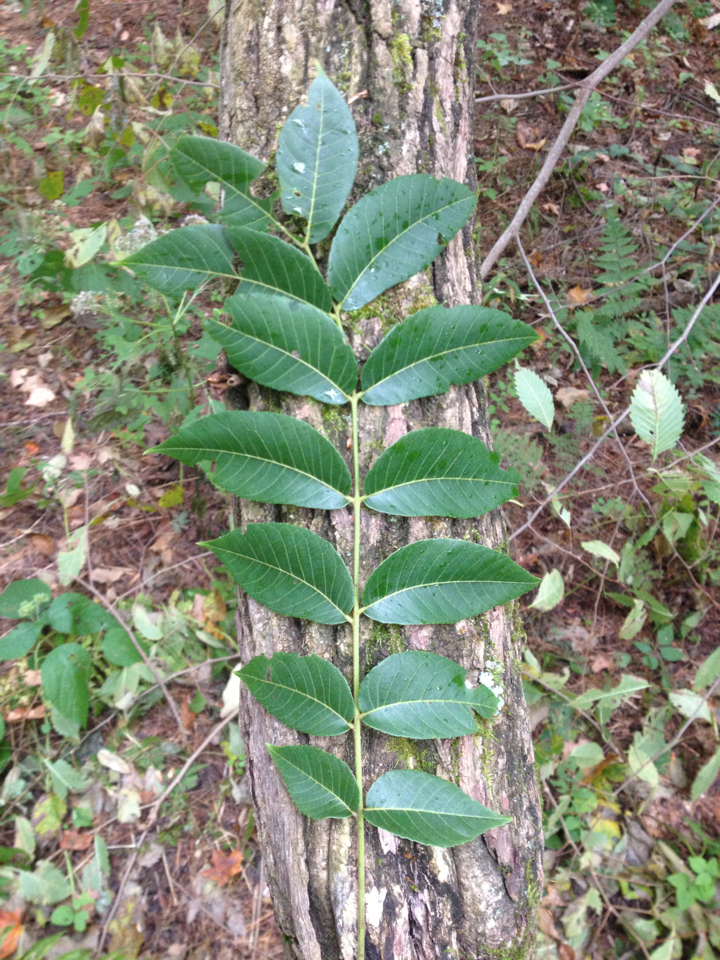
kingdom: Plantae
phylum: Tracheophyta
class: Magnoliopsida
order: Fagales
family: Juglandaceae
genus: Juglans
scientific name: Juglans nigra
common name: Black walnut
